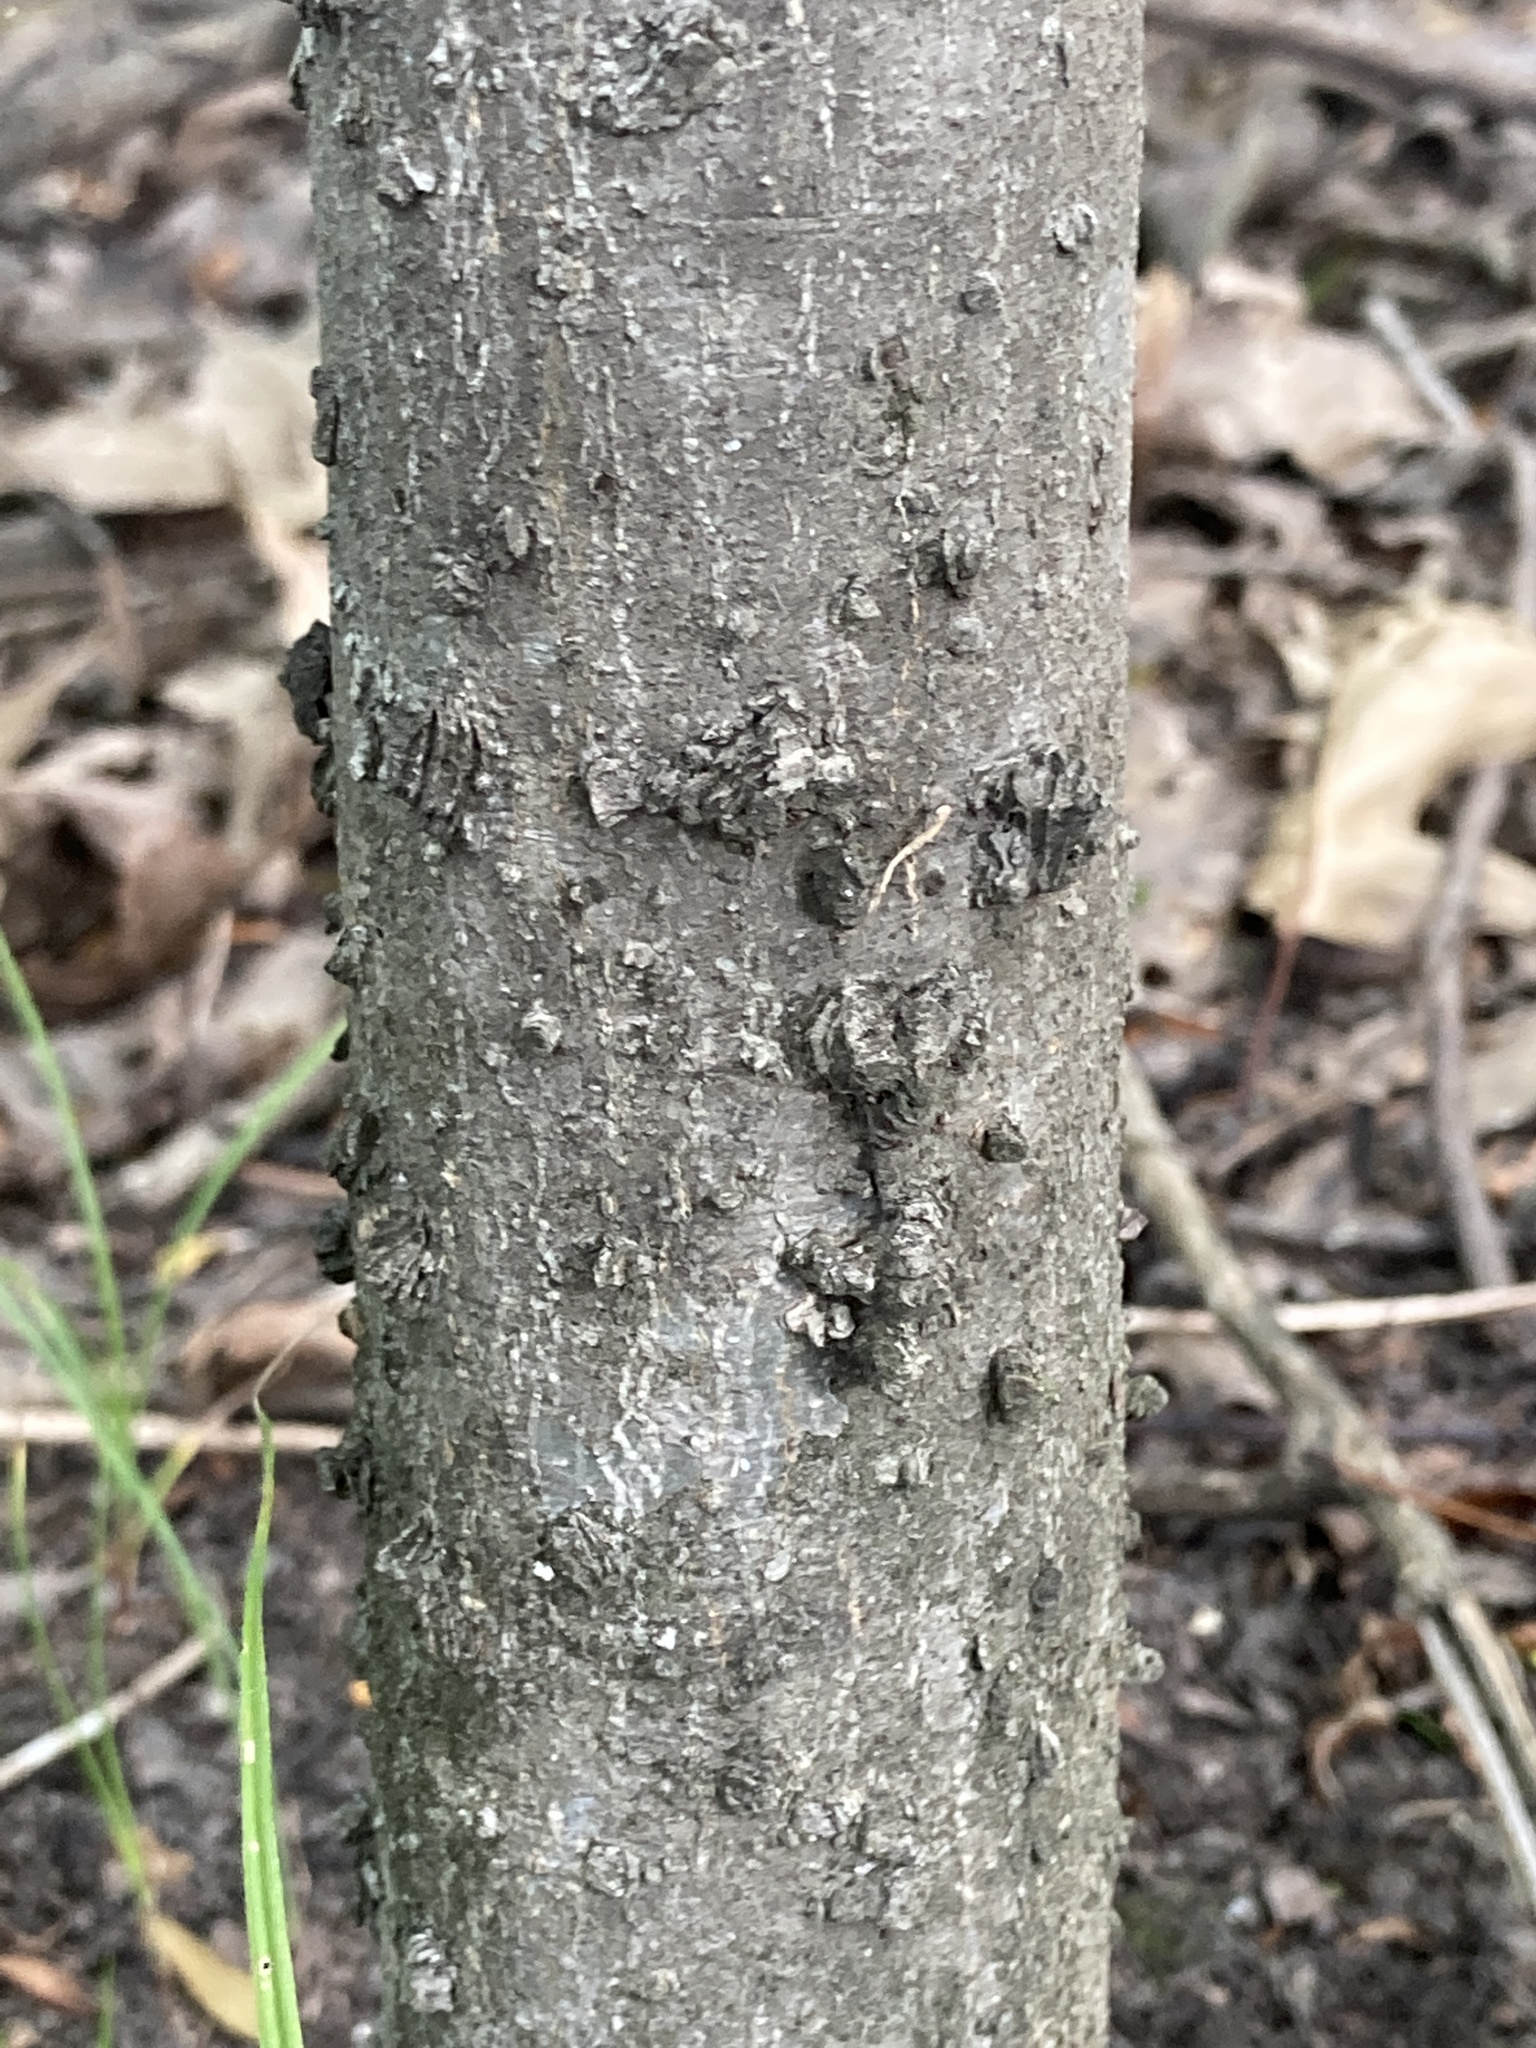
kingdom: Plantae
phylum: Tracheophyta
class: Magnoliopsida
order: Rosales
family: Cannabaceae
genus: Celtis
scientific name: Celtis laevigata
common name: Sugarberry
